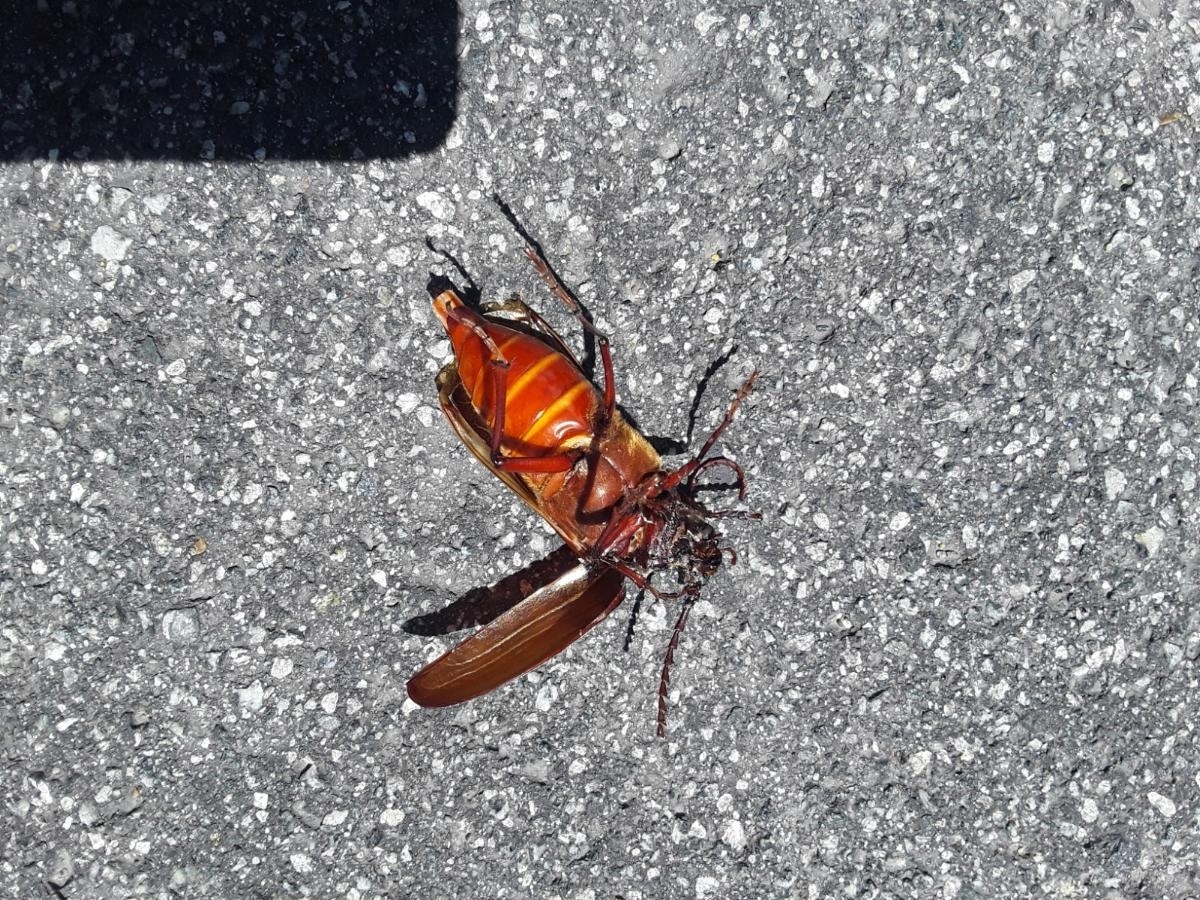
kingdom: Animalia
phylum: Arthropoda
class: Insecta
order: Coleoptera
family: Cerambycidae
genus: Prionus
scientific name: Prionus californicus
